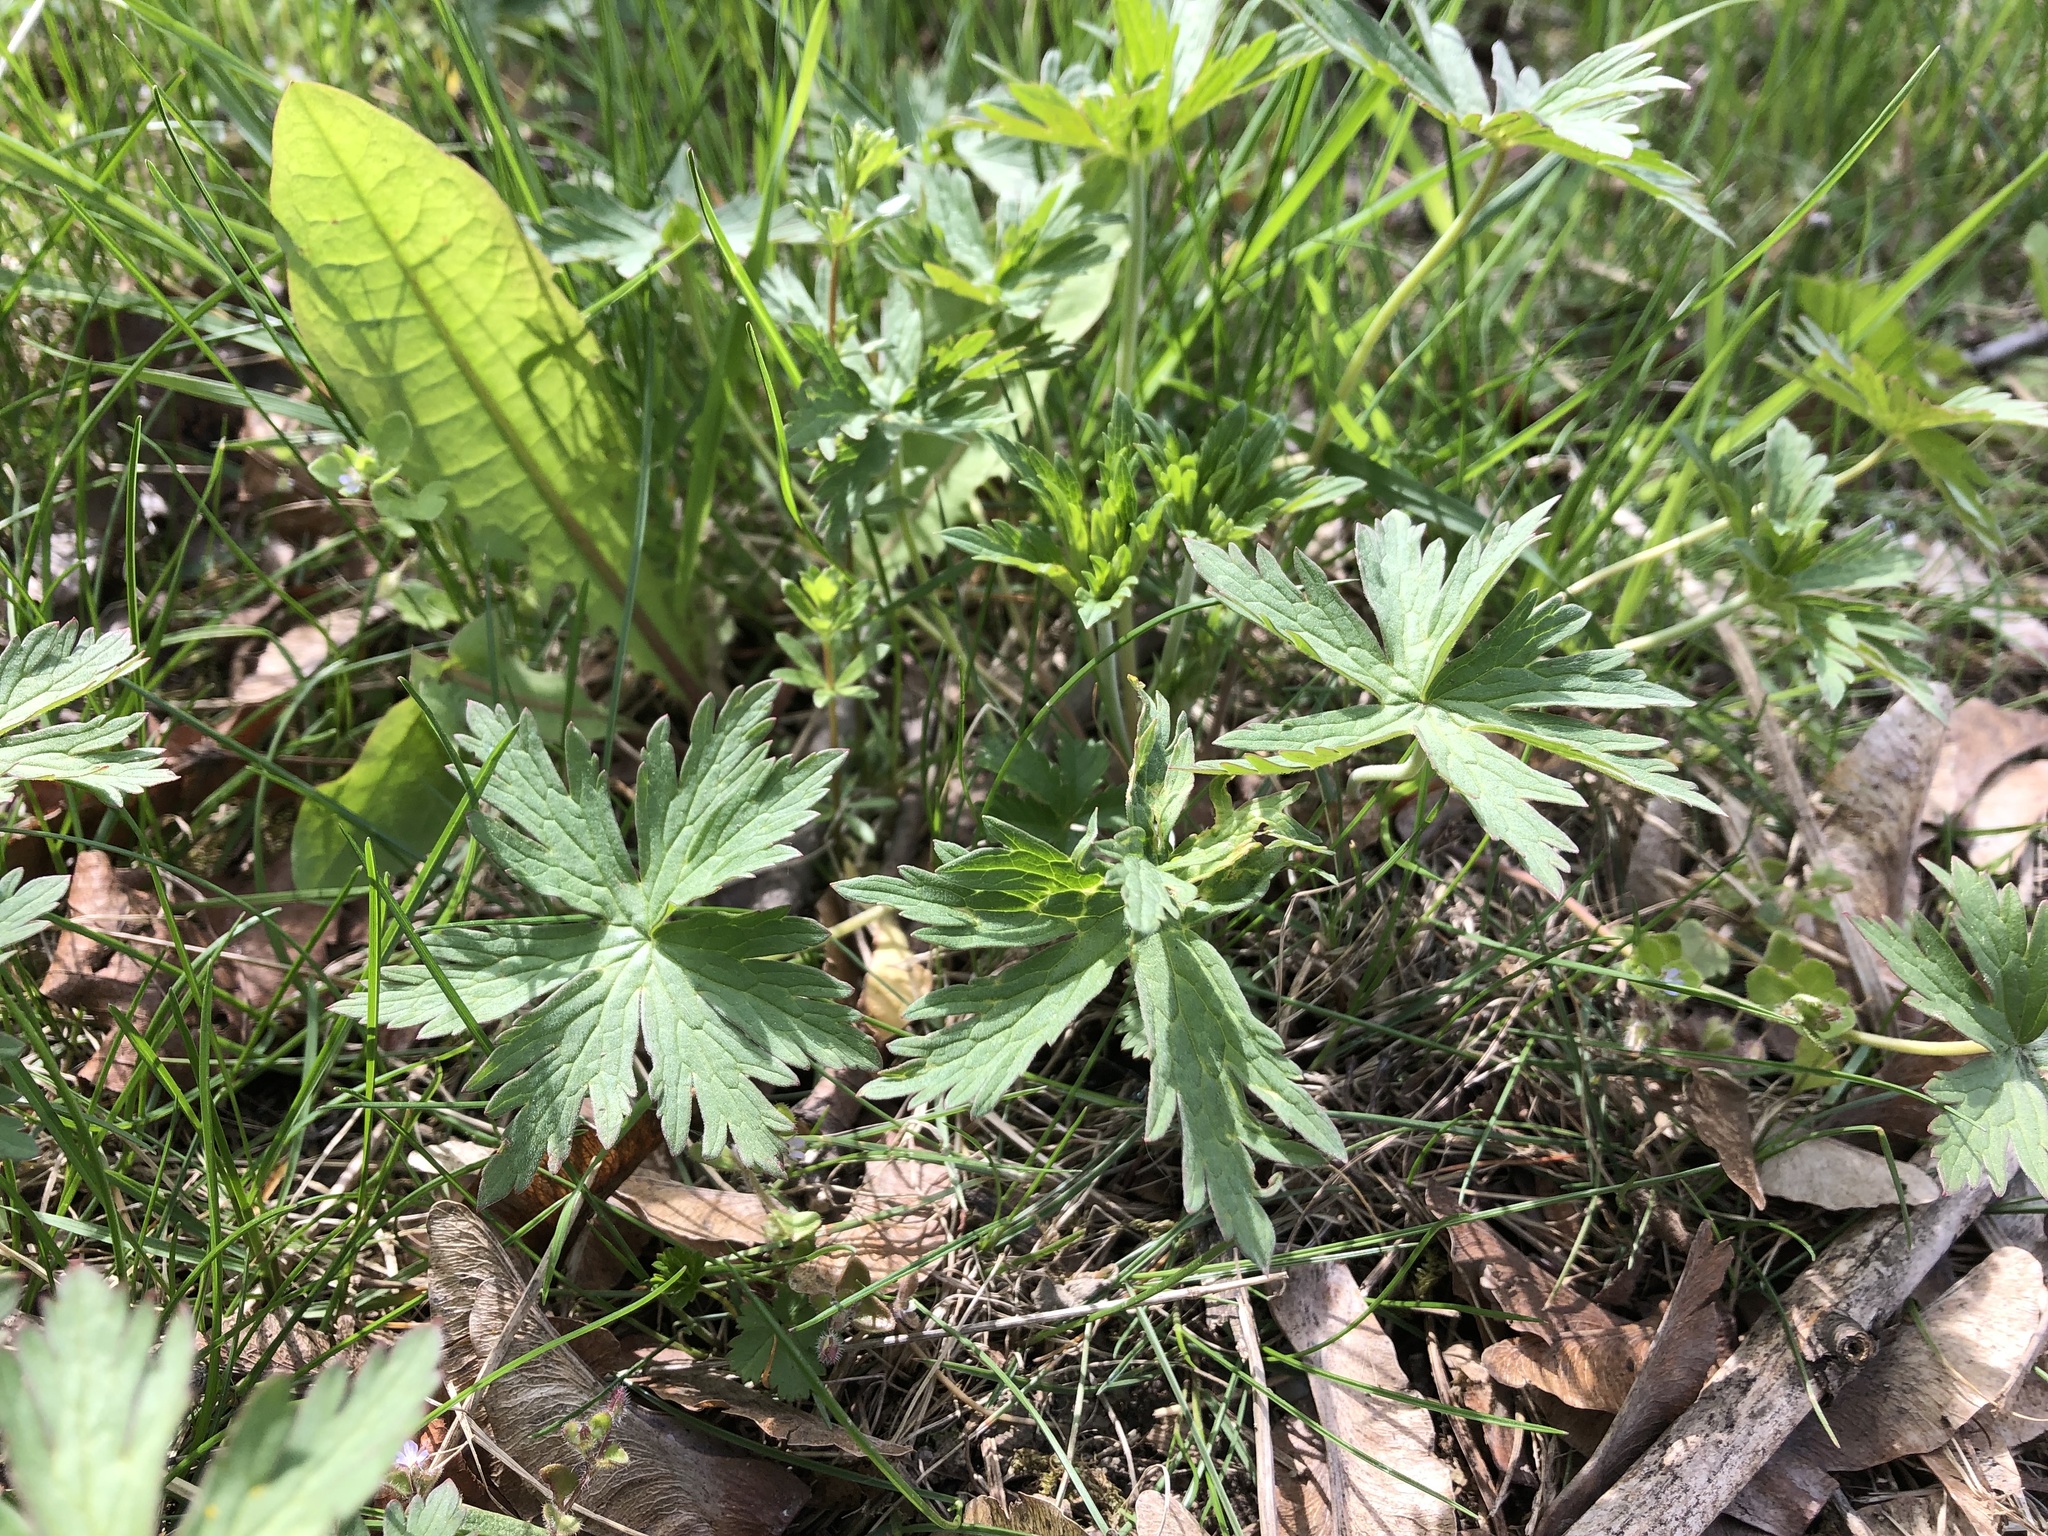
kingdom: Plantae
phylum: Tracheophyta
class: Magnoliopsida
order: Geraniales
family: Geraniaceae
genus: Geranium
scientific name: Geranium pratense
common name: Meadow crane's-bill
